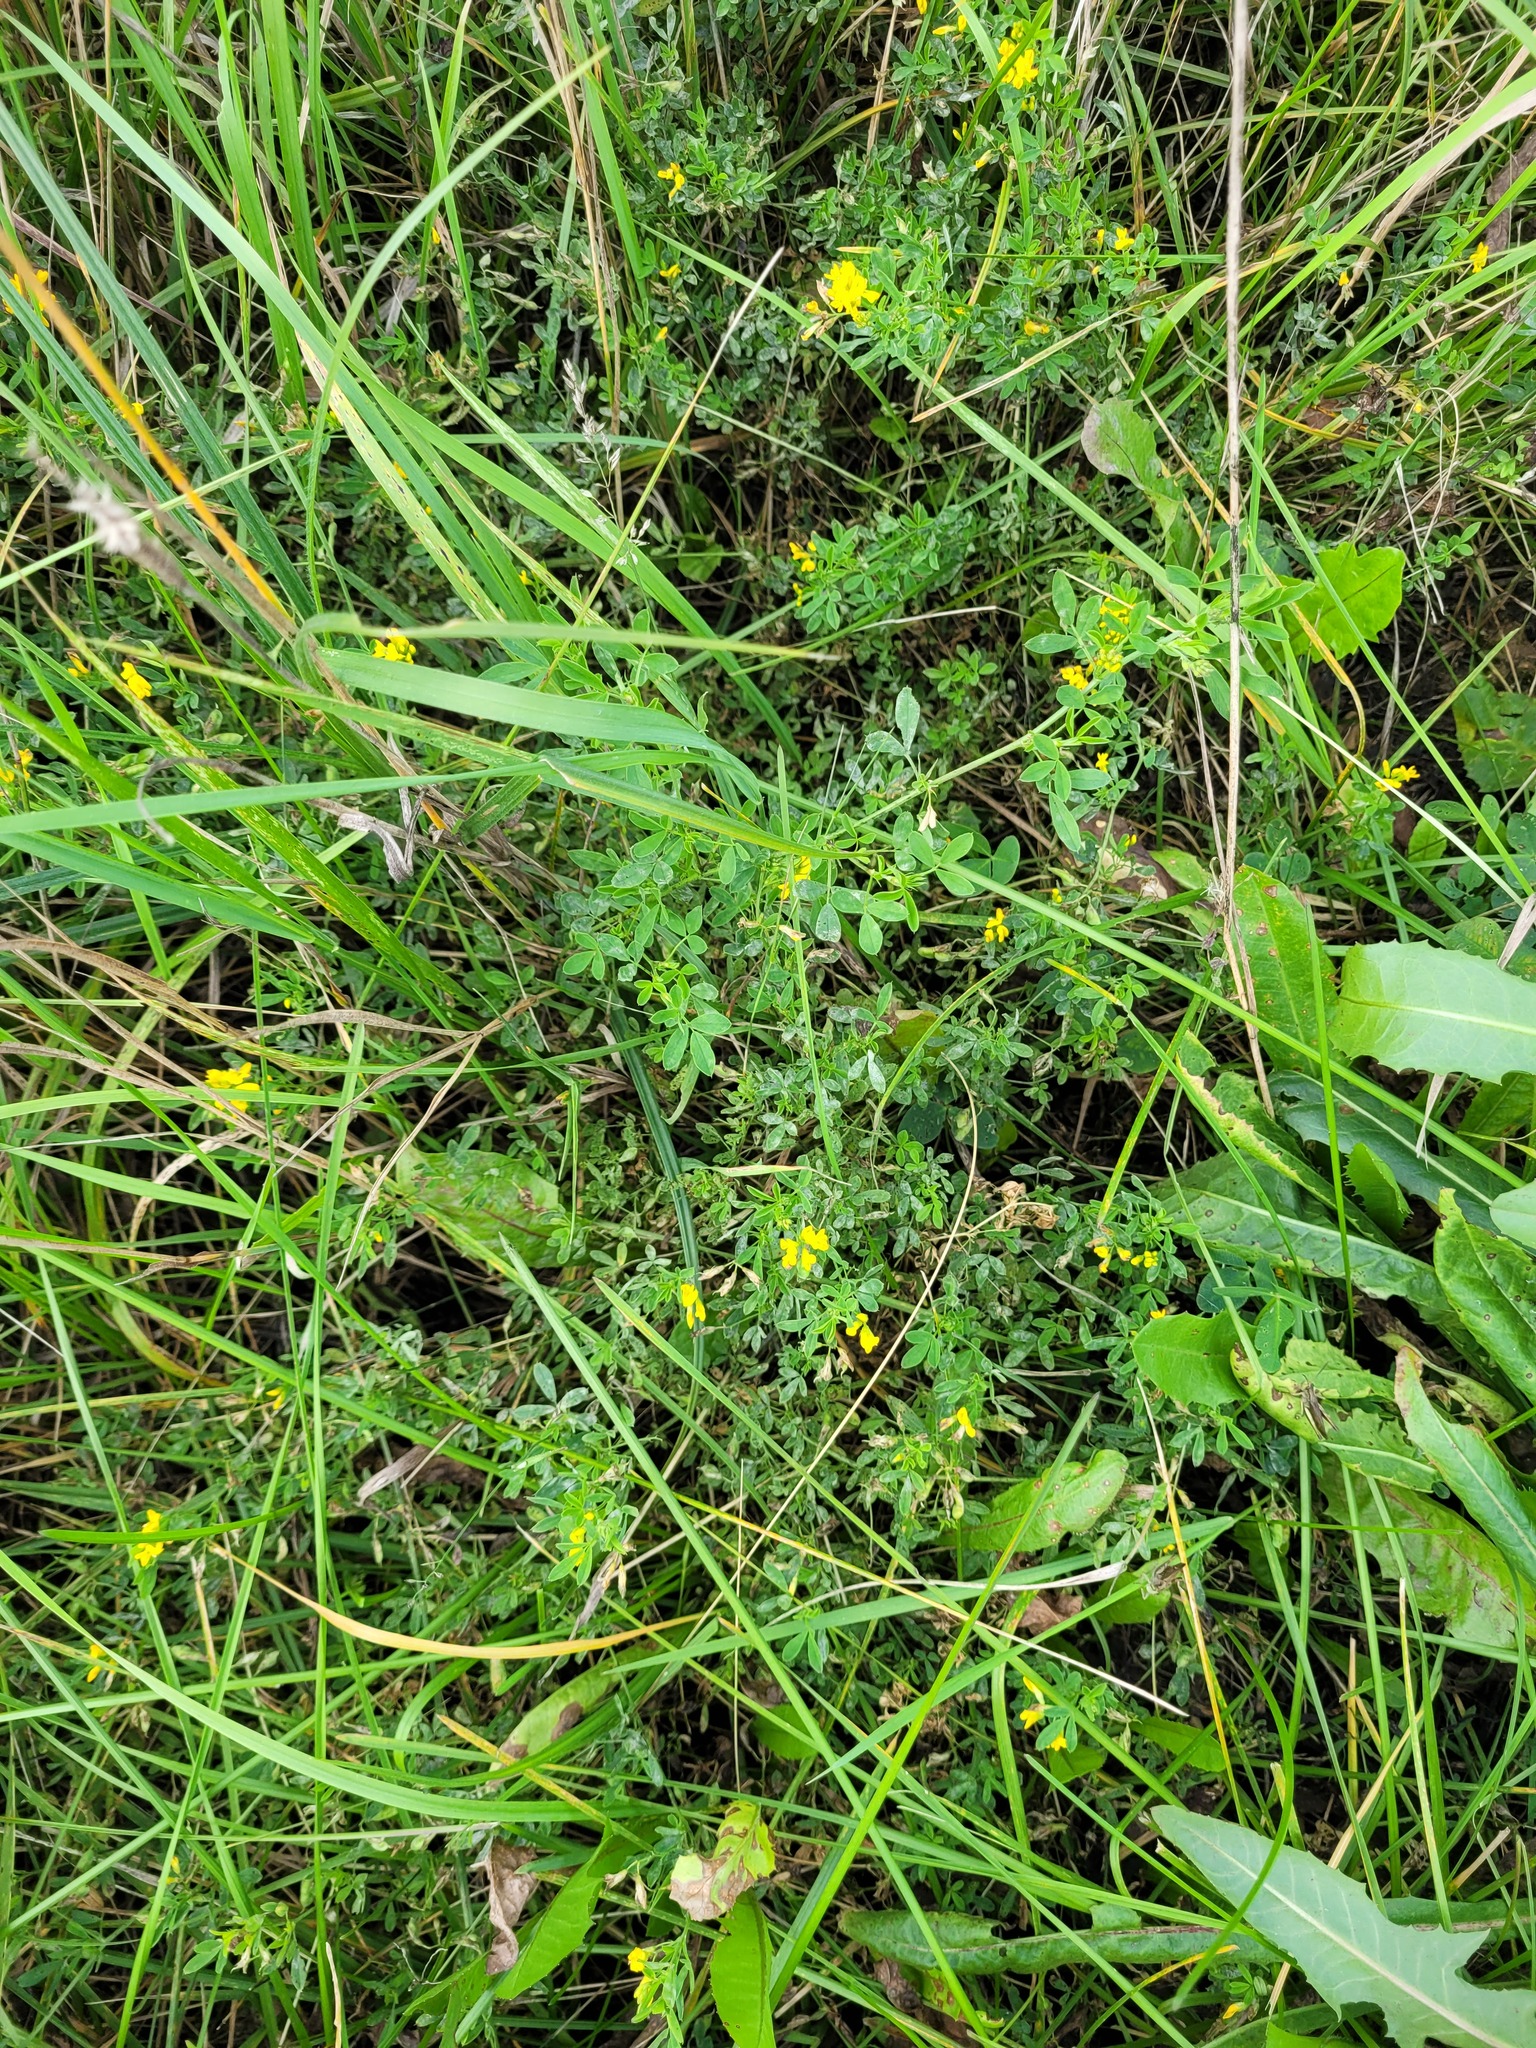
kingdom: Plantae
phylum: Tracheophyta
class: Magnoliopsida
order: Fabales
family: Fabaceae
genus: Medicago
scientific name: Medicago falcata
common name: Sickle medick
